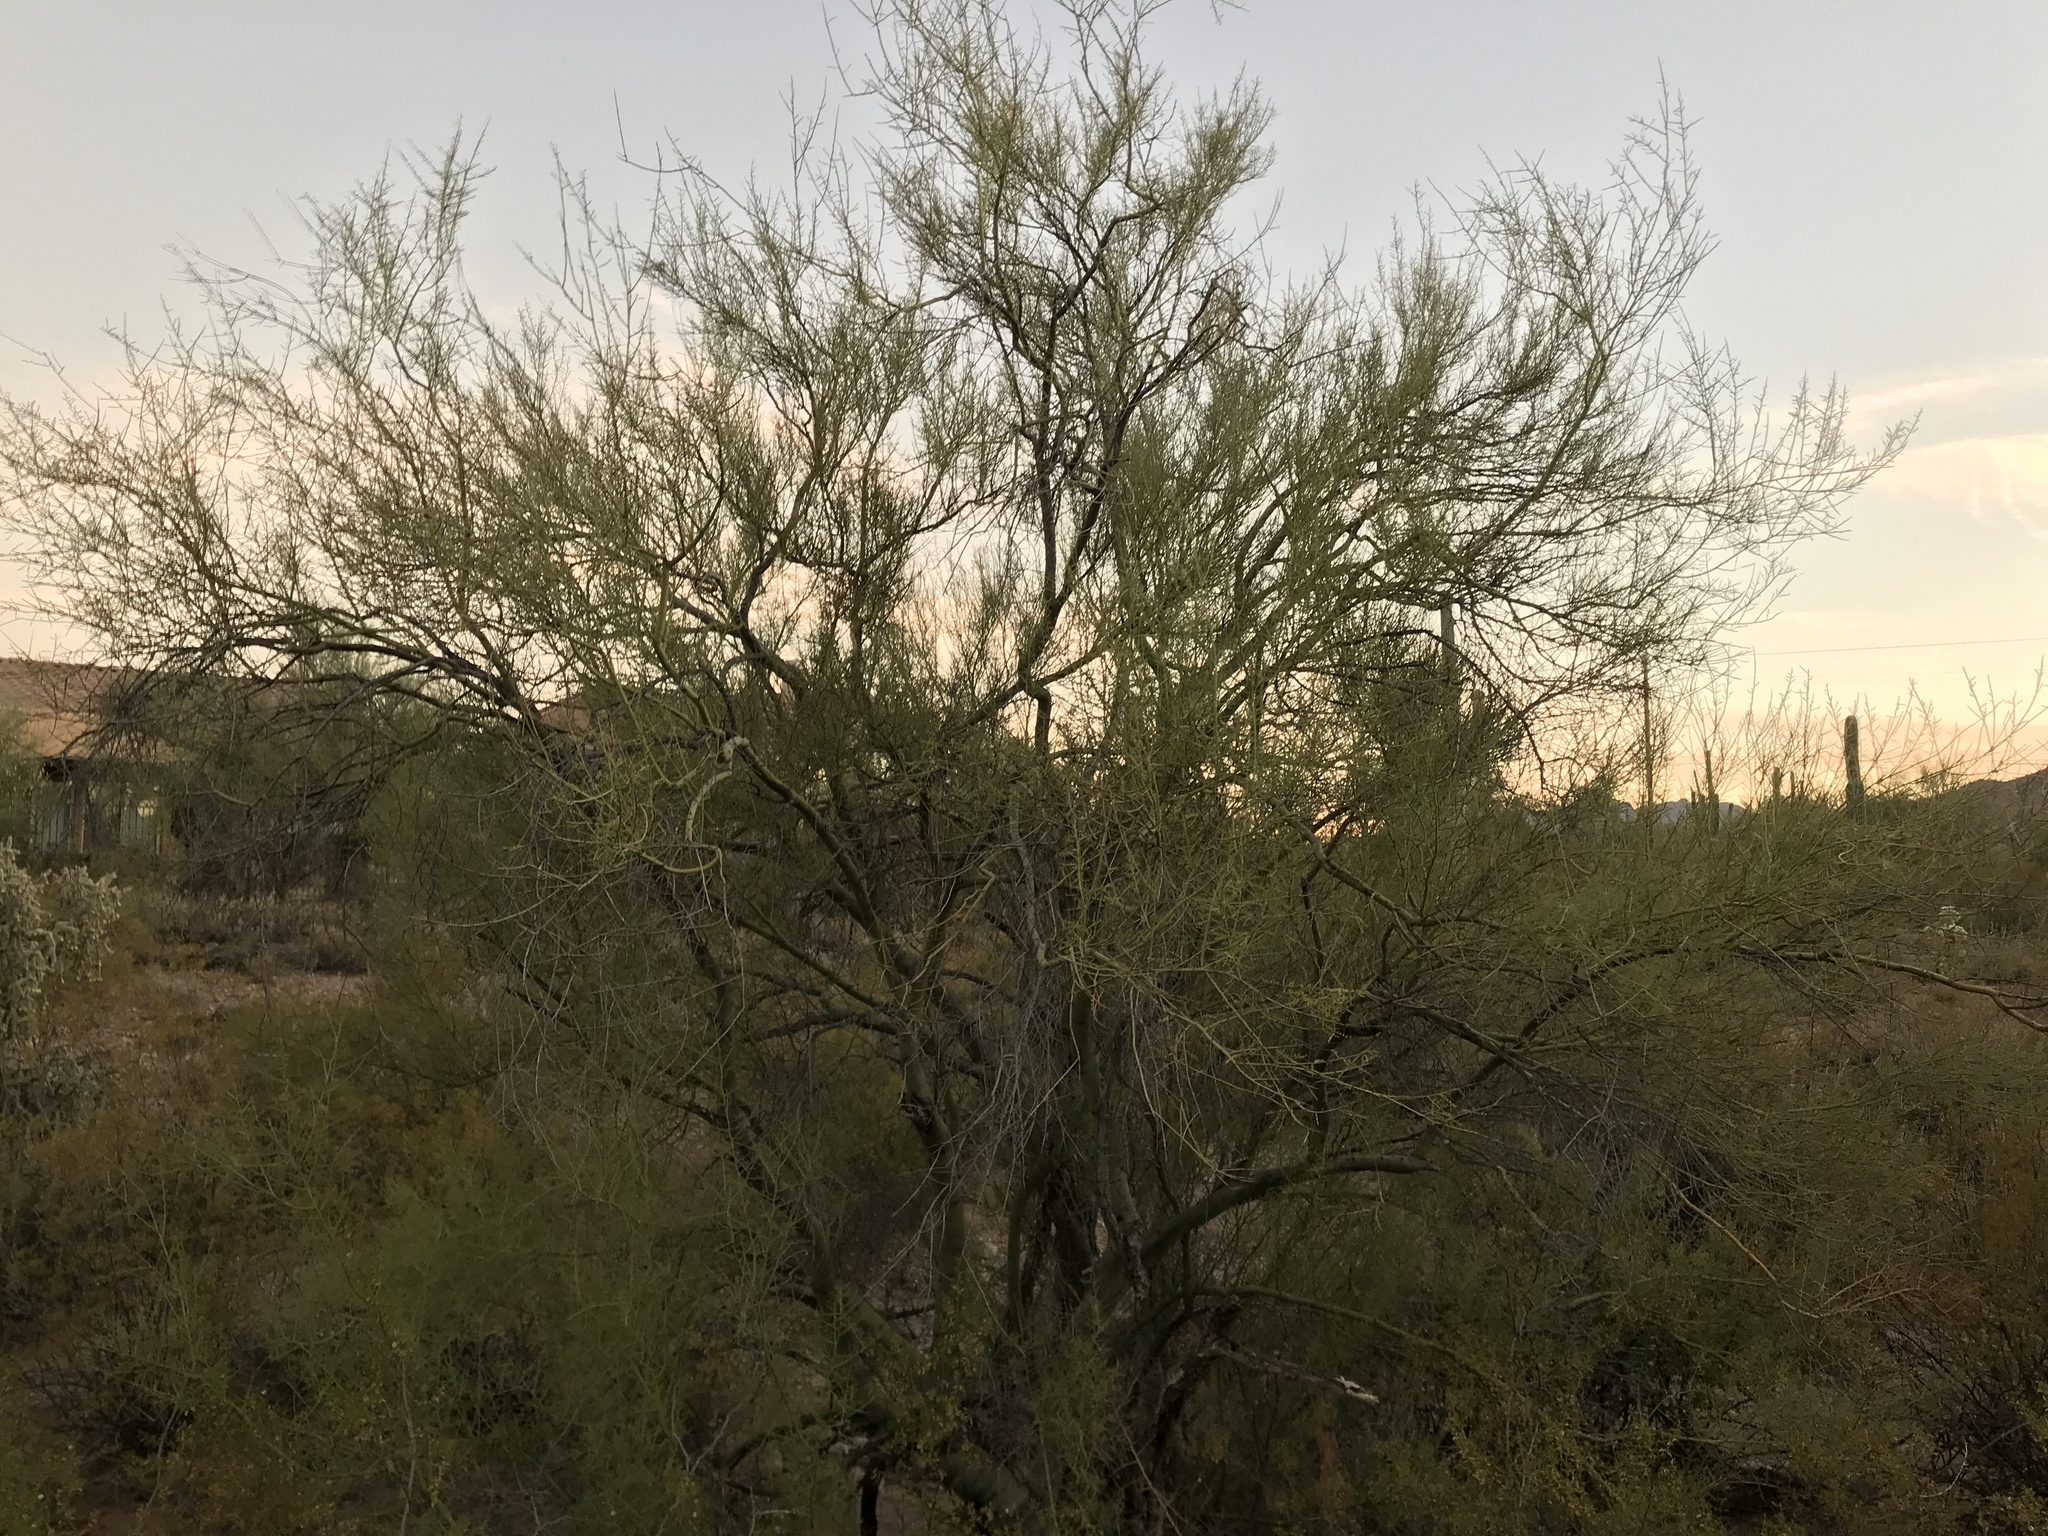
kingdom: Plantae
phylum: Tracheophyta
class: Magnoliopsida
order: Fabales
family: Fabaceae
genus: Parkinsonia
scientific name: Parkinsonia florida
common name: Blue paloverde
